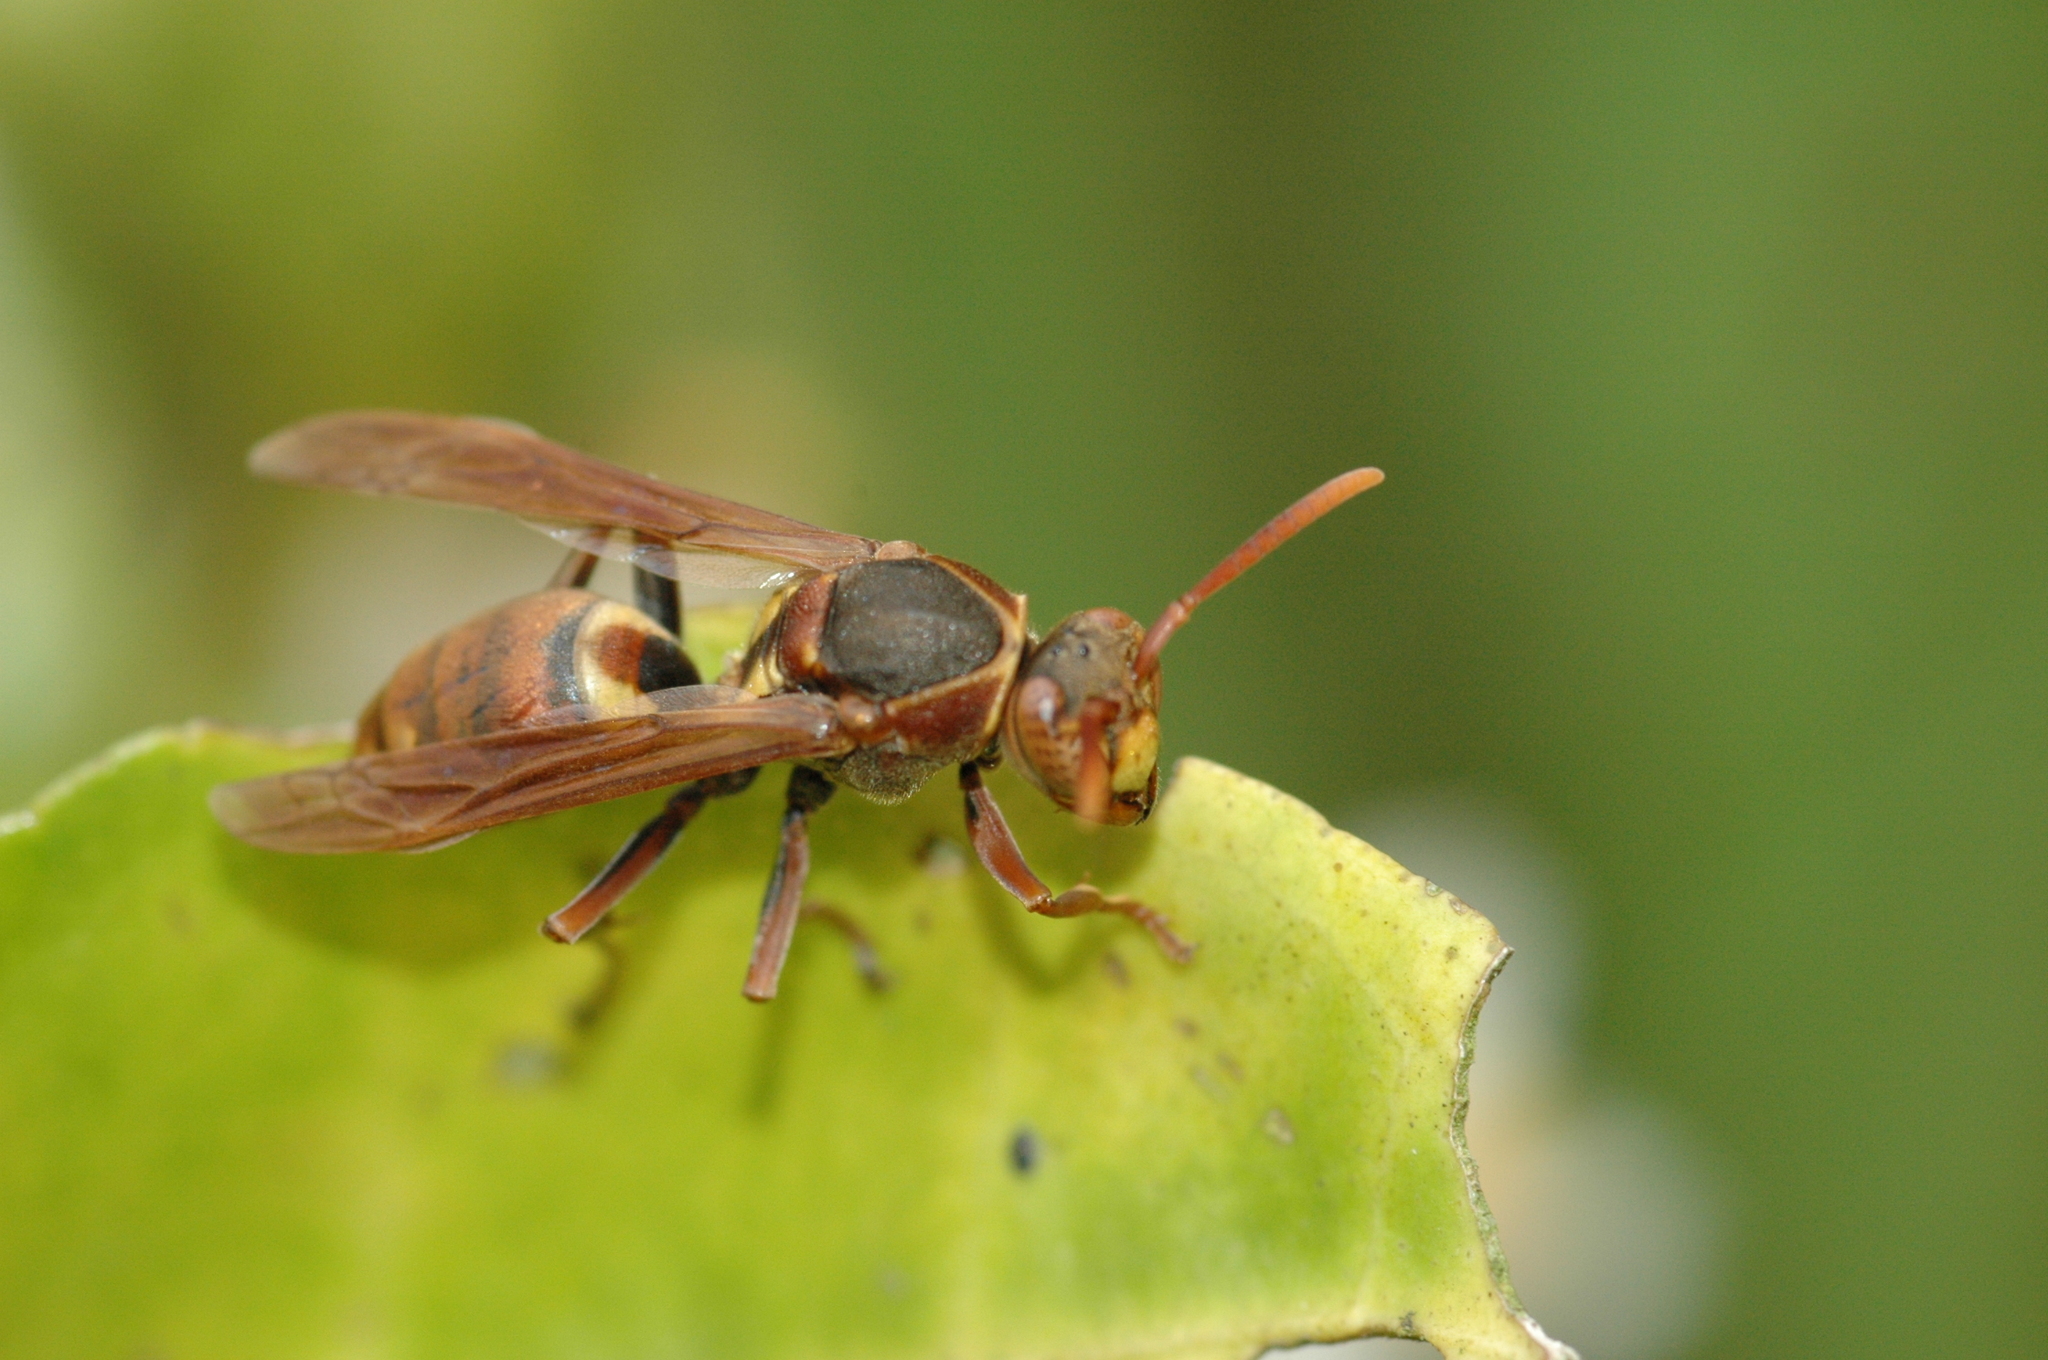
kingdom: Animalia
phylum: Arthropoda
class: Insecta
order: Hymenoptera
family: Eumenidae
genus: Polistes
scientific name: Polistes takasagonus
